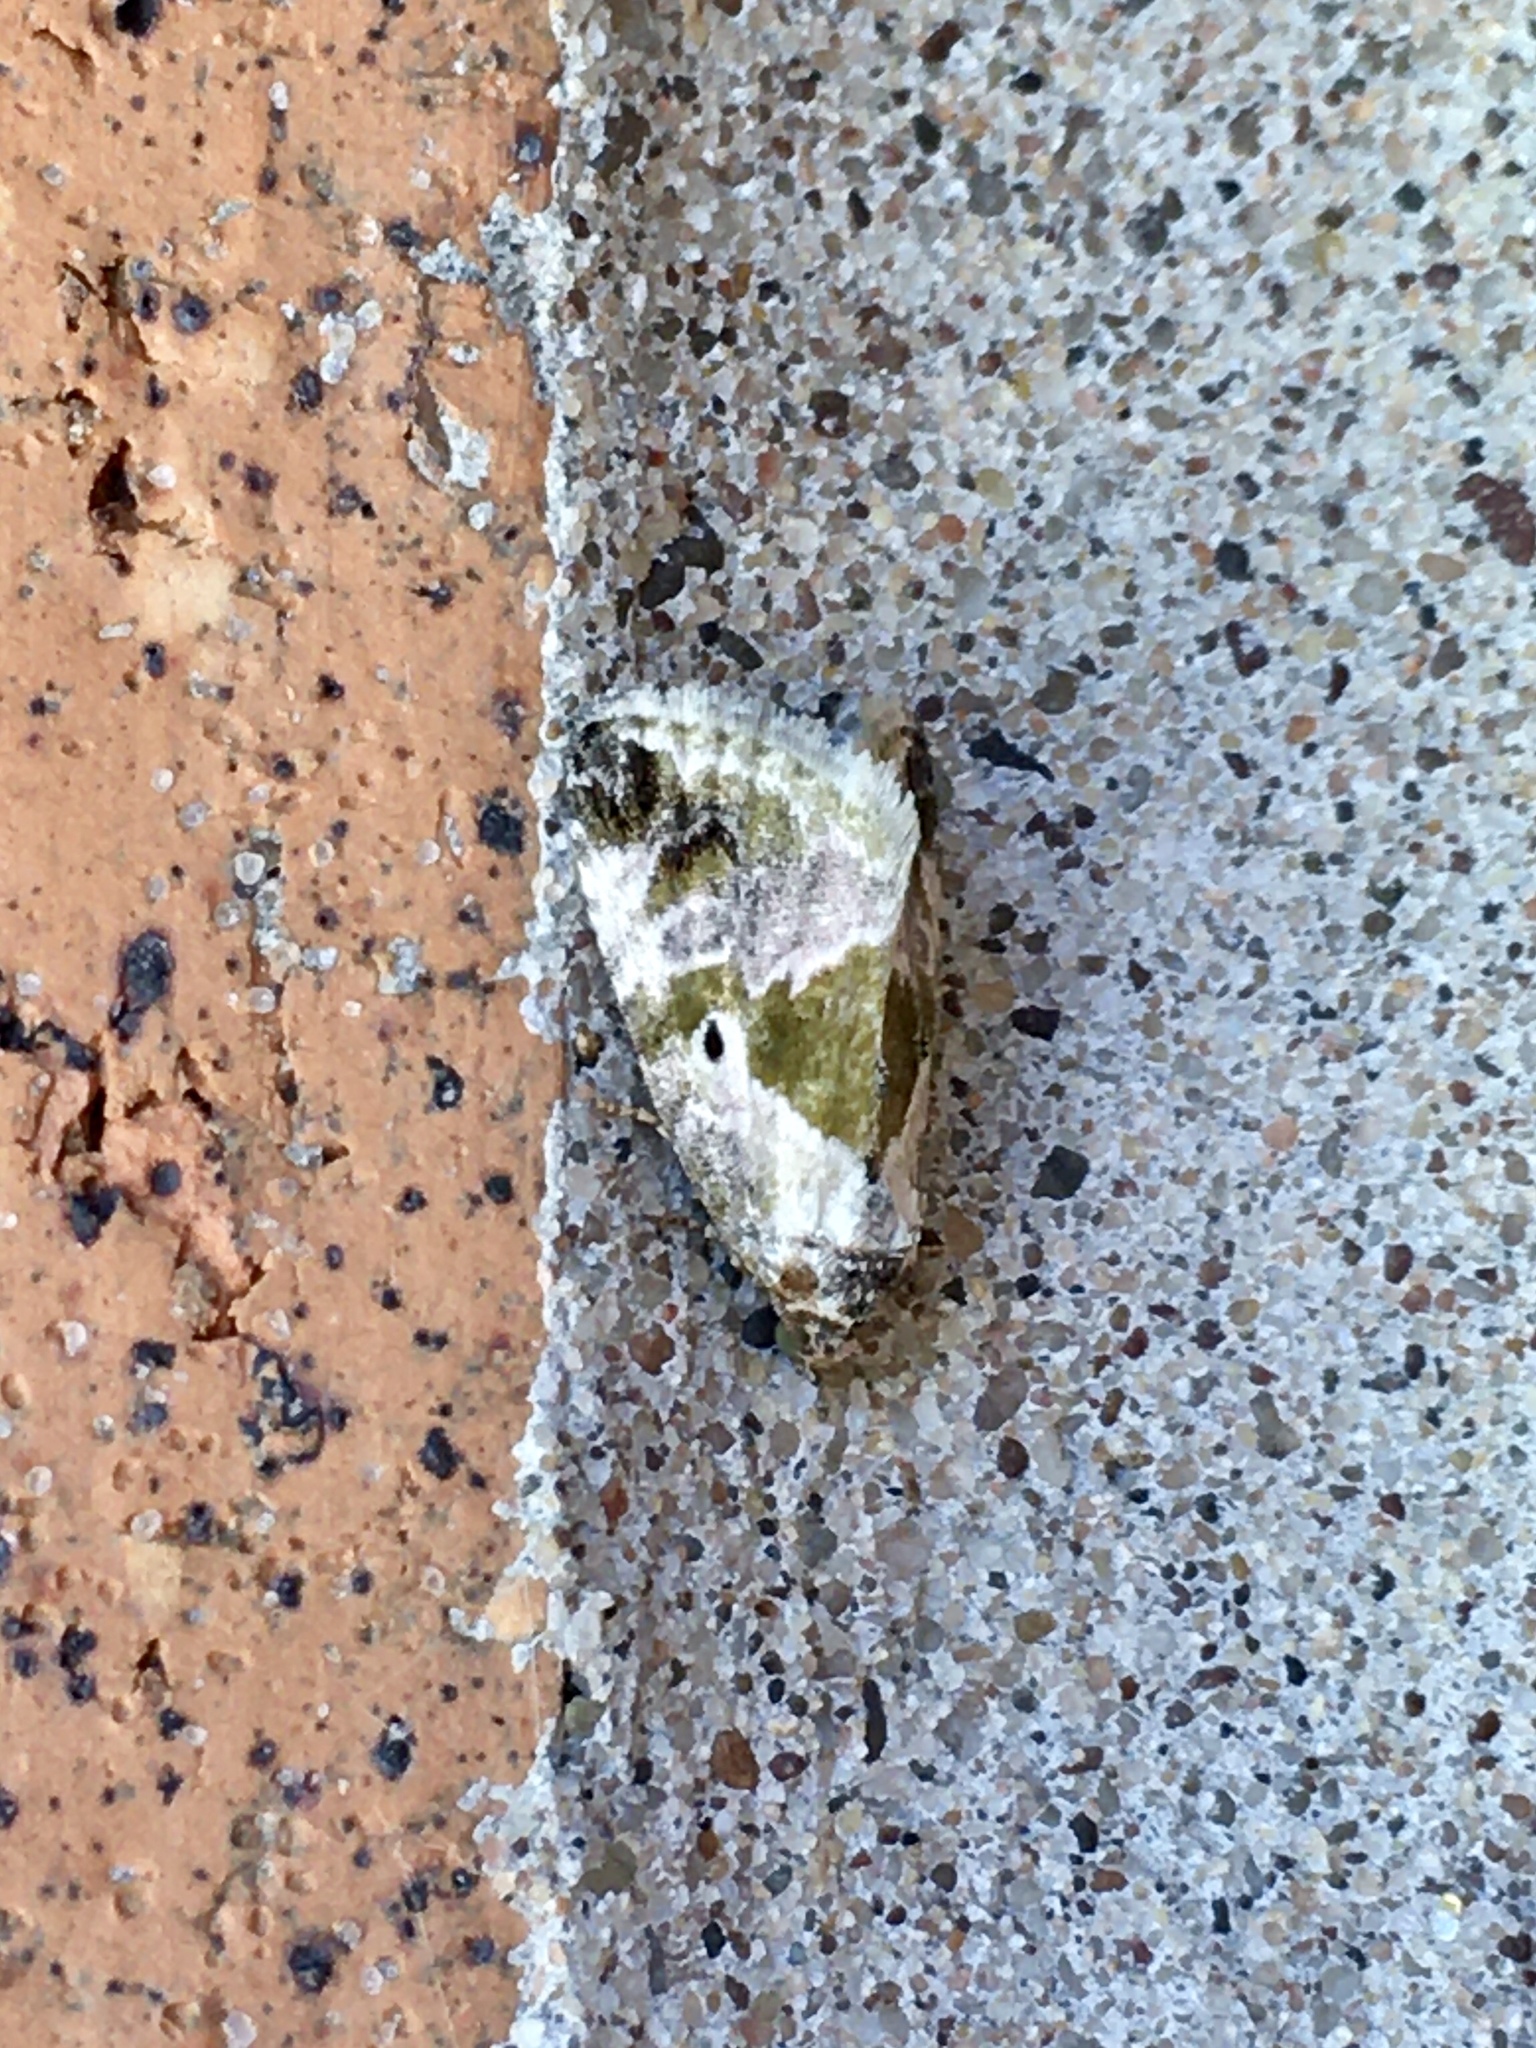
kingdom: Animalia
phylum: Arthropoda
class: Insecta
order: Lepidoptera
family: Noctuidae
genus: Maliattha
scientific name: Maliattha synochitis
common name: Black-dotted glyph
